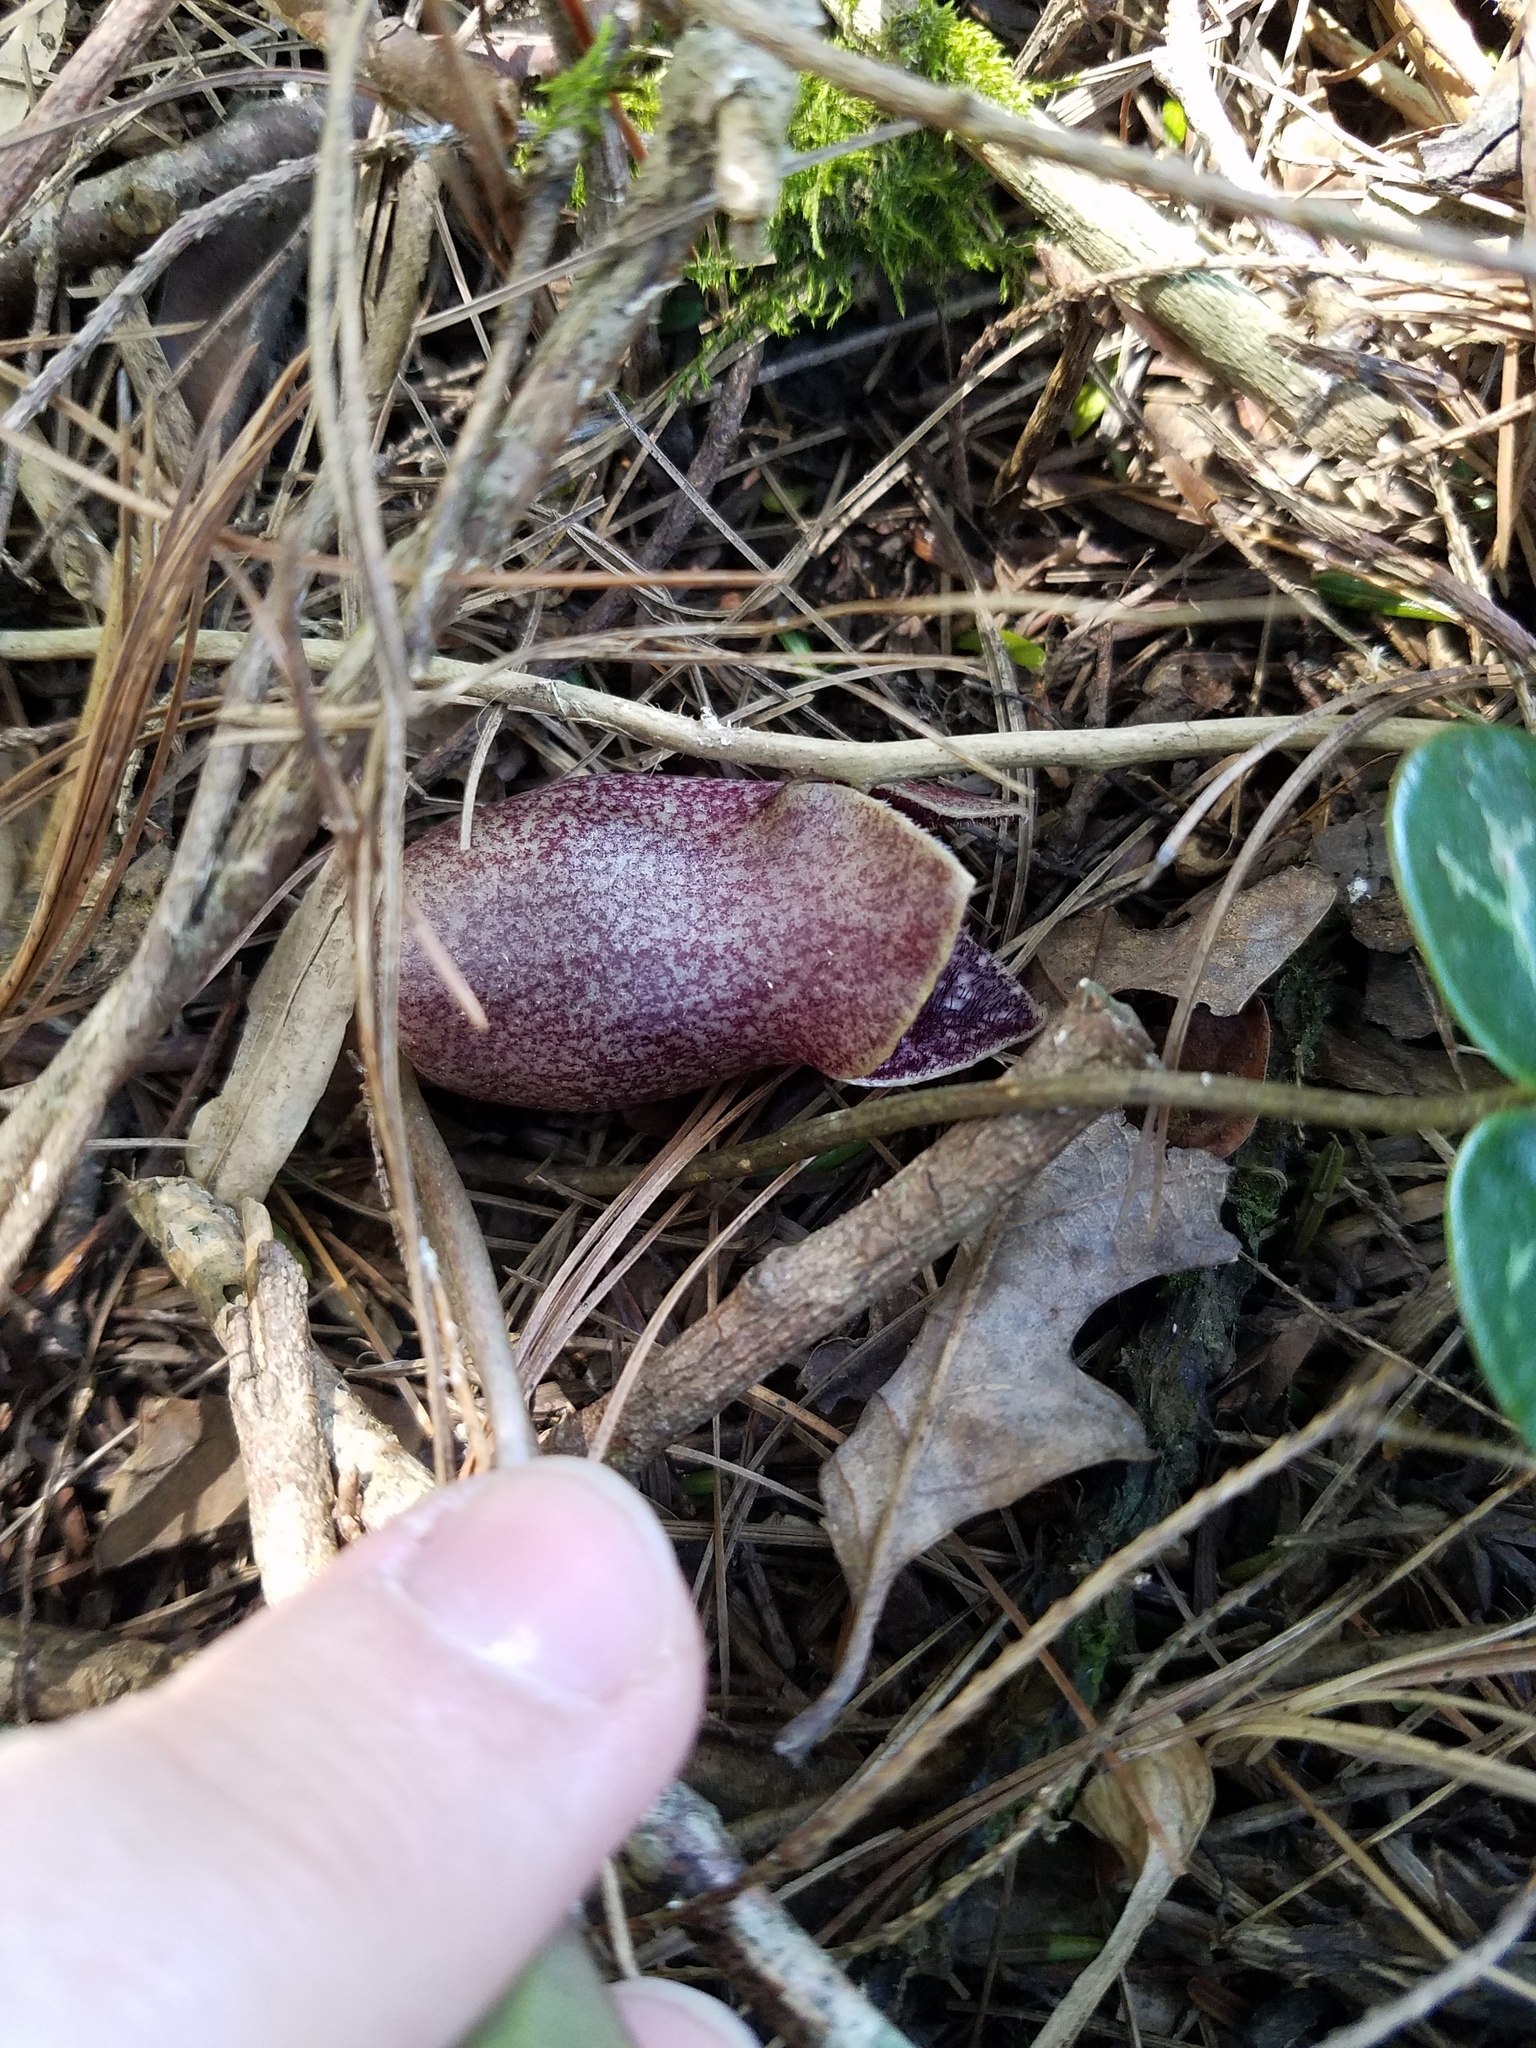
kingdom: Plantae
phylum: Tracheophyta
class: Magnoliopsida
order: Piperales
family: Aristolochiaceae
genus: Hexastylis
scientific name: Hexastylis shuttleworthii
